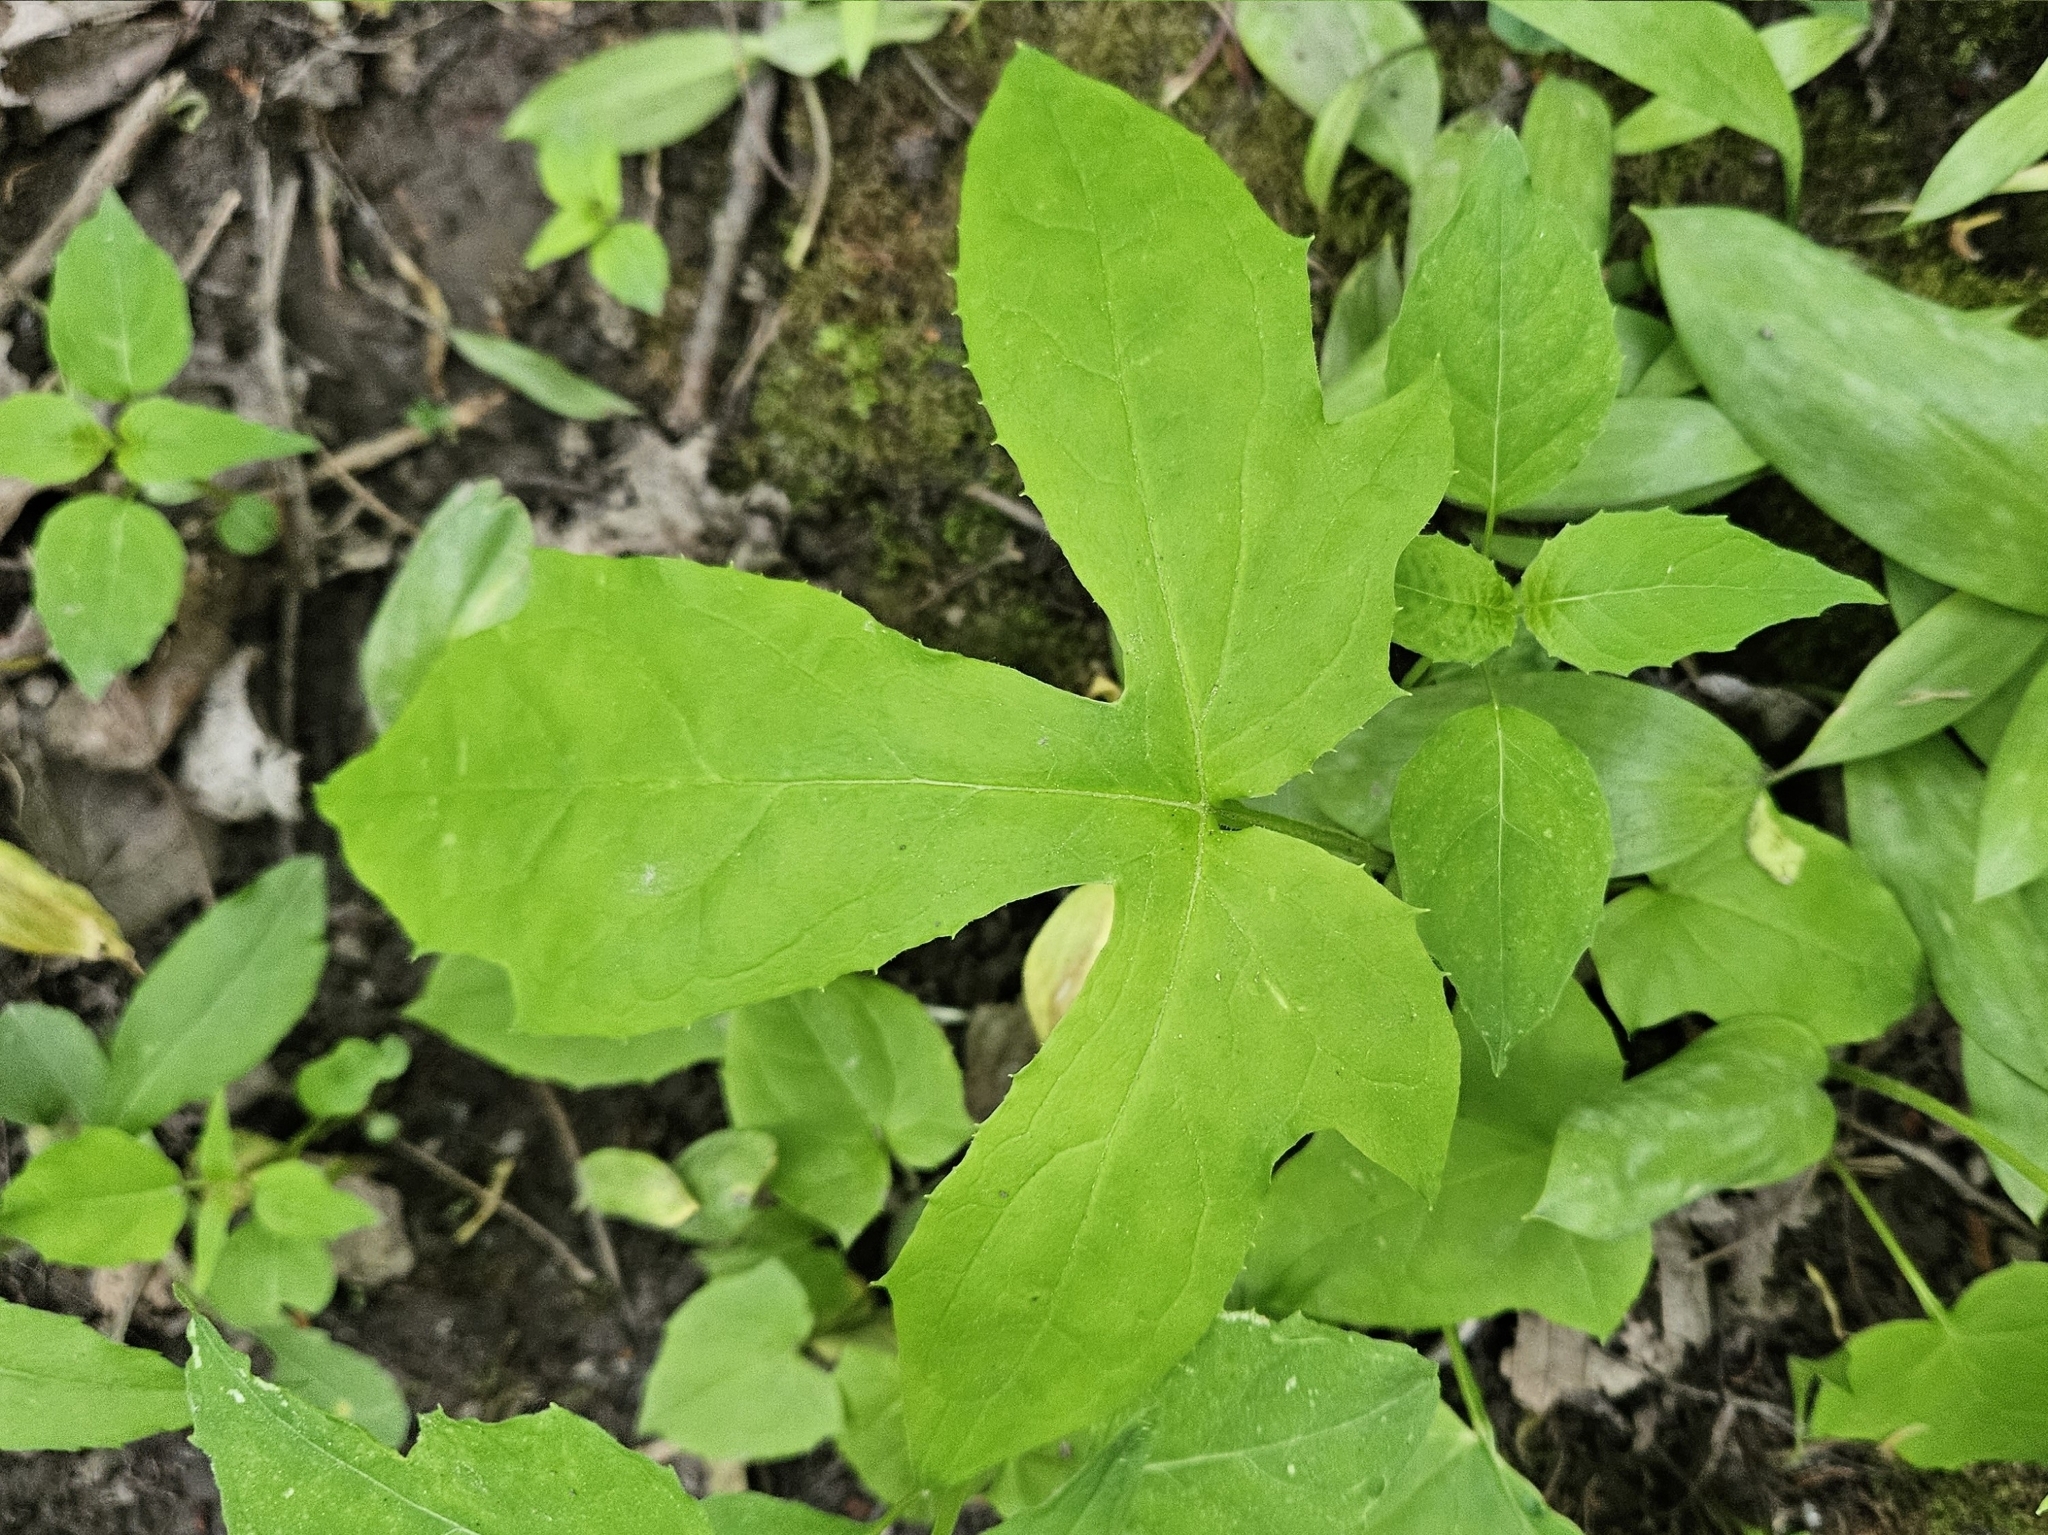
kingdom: Plantae
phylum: Tracheophyta
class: Magnoliopsida
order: Asterales
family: Asteraceae
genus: Nabalus
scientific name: Nabalus
